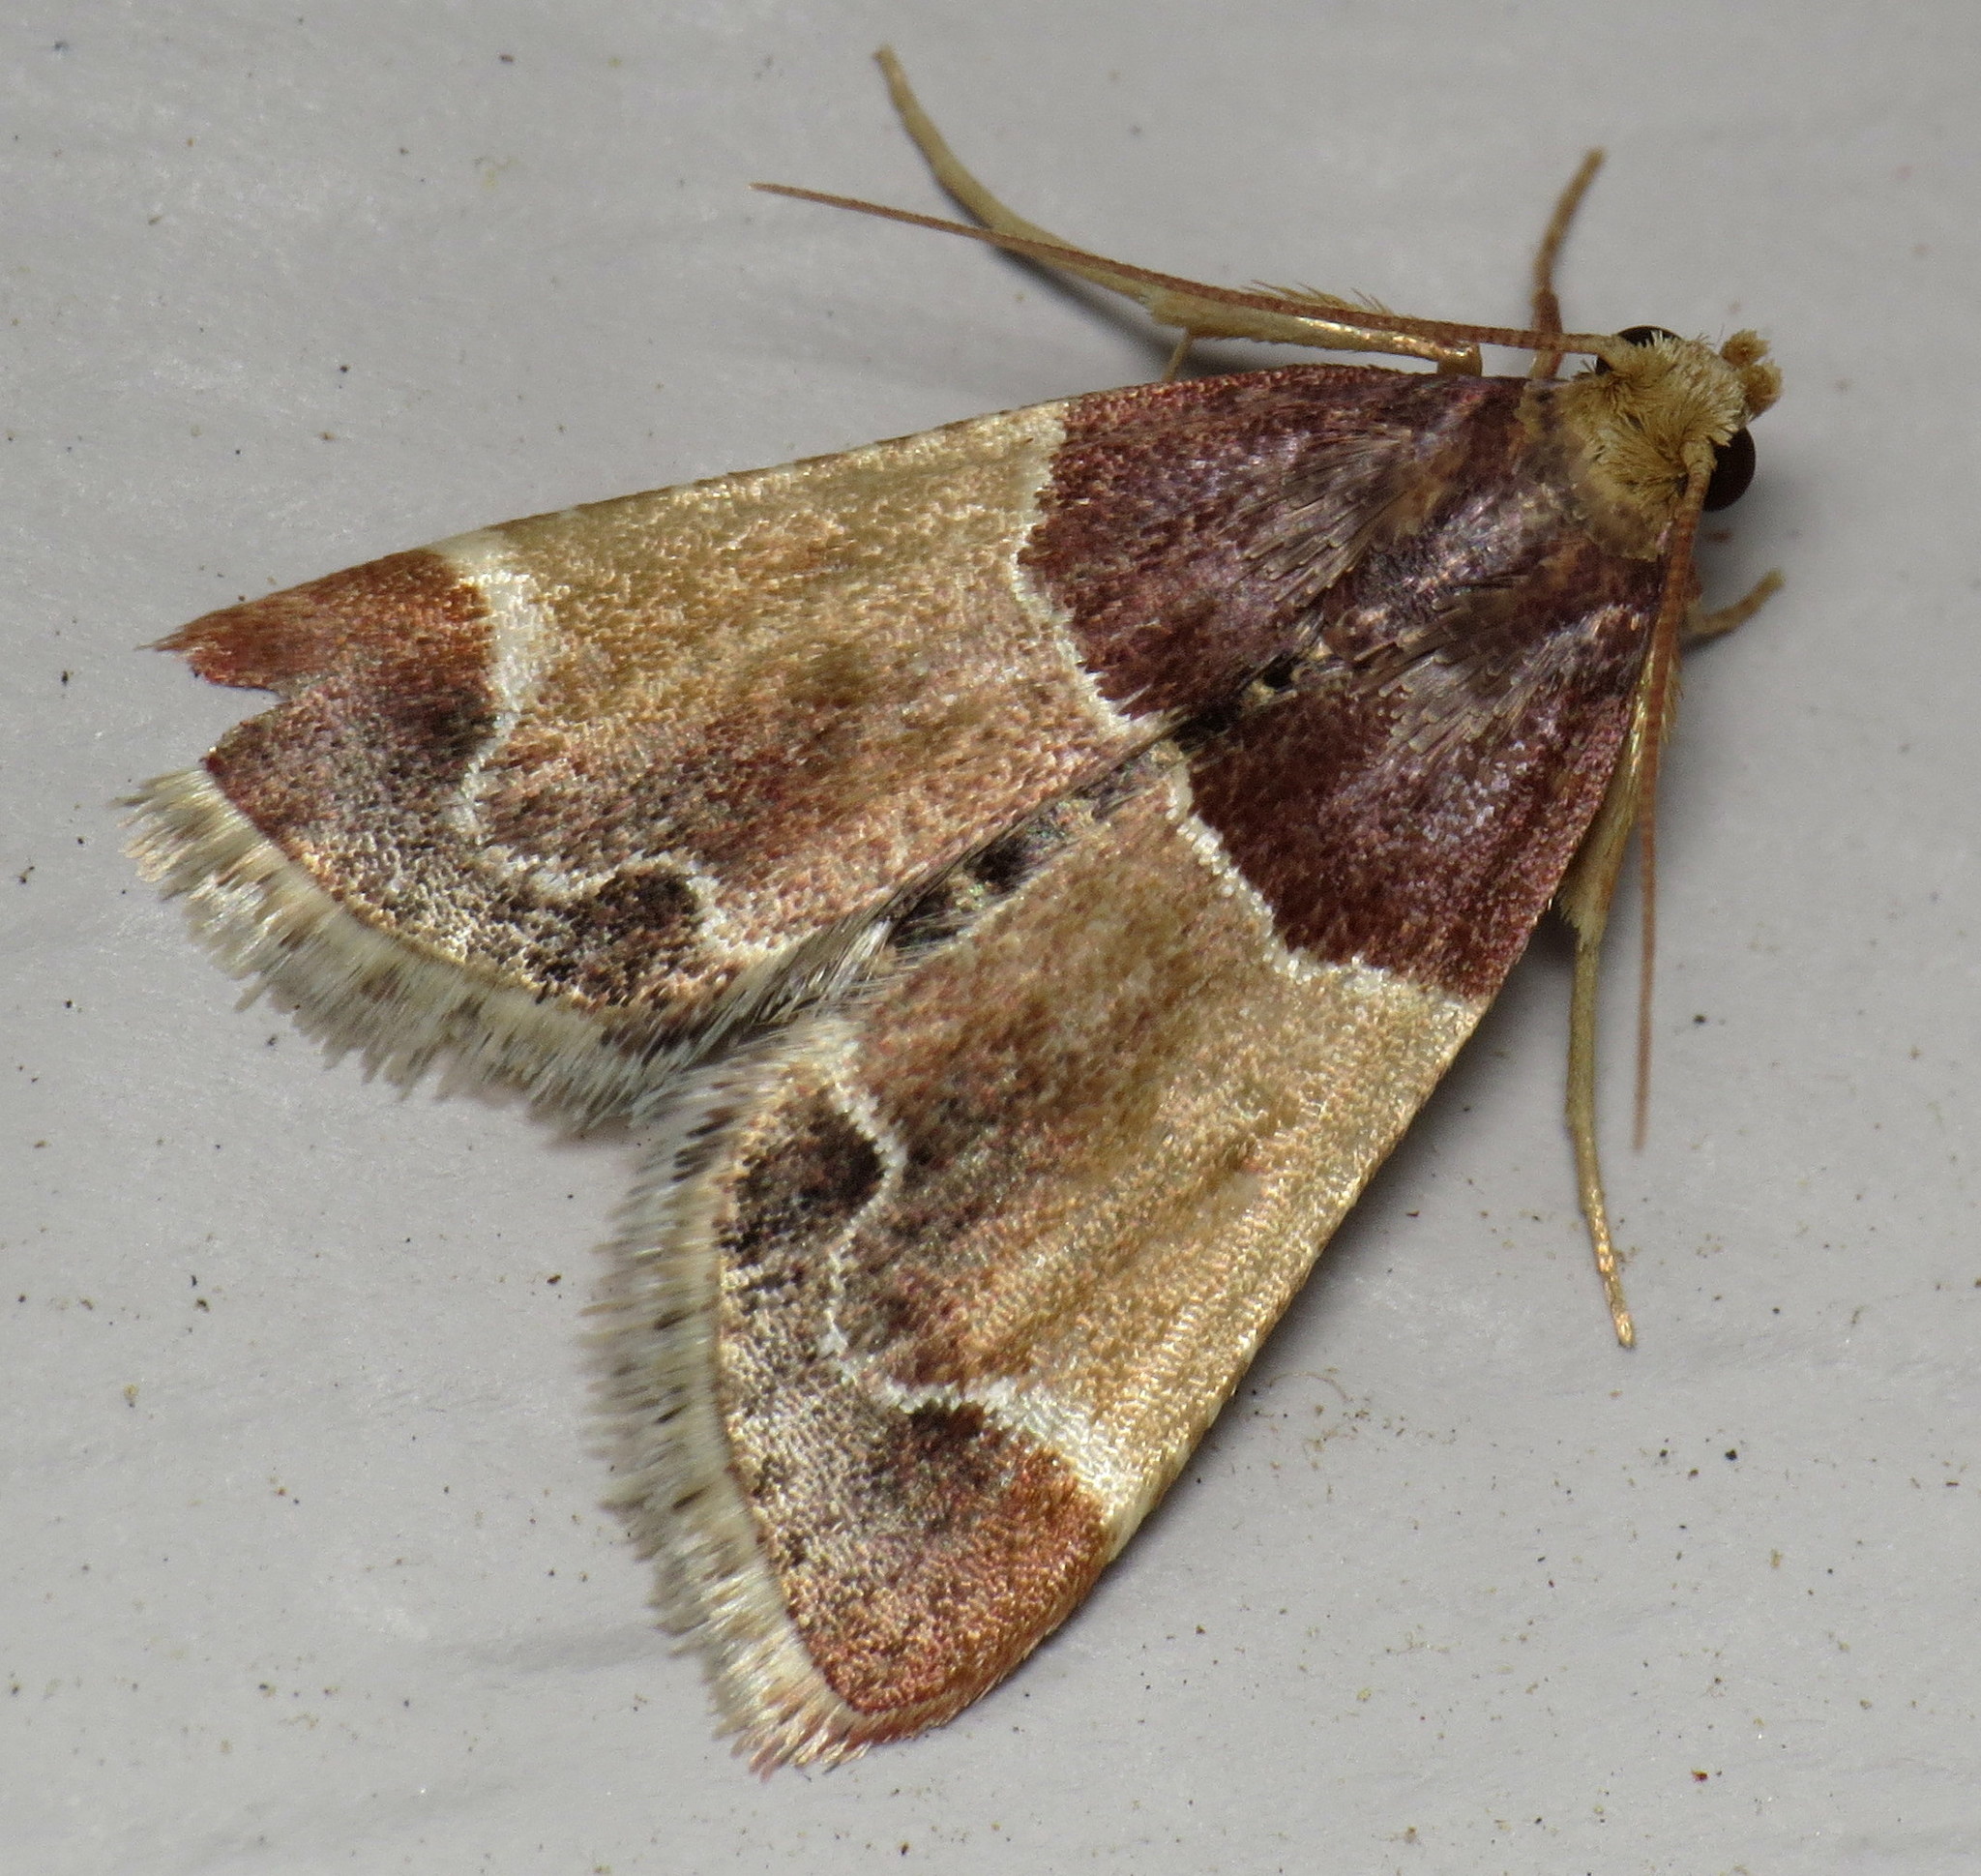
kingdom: Animalia
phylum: Arthropoda
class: Insecta
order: Lepidoptera
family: Pyralidae
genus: Pyralis
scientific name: Pyralis farinalis
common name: Meal moth
